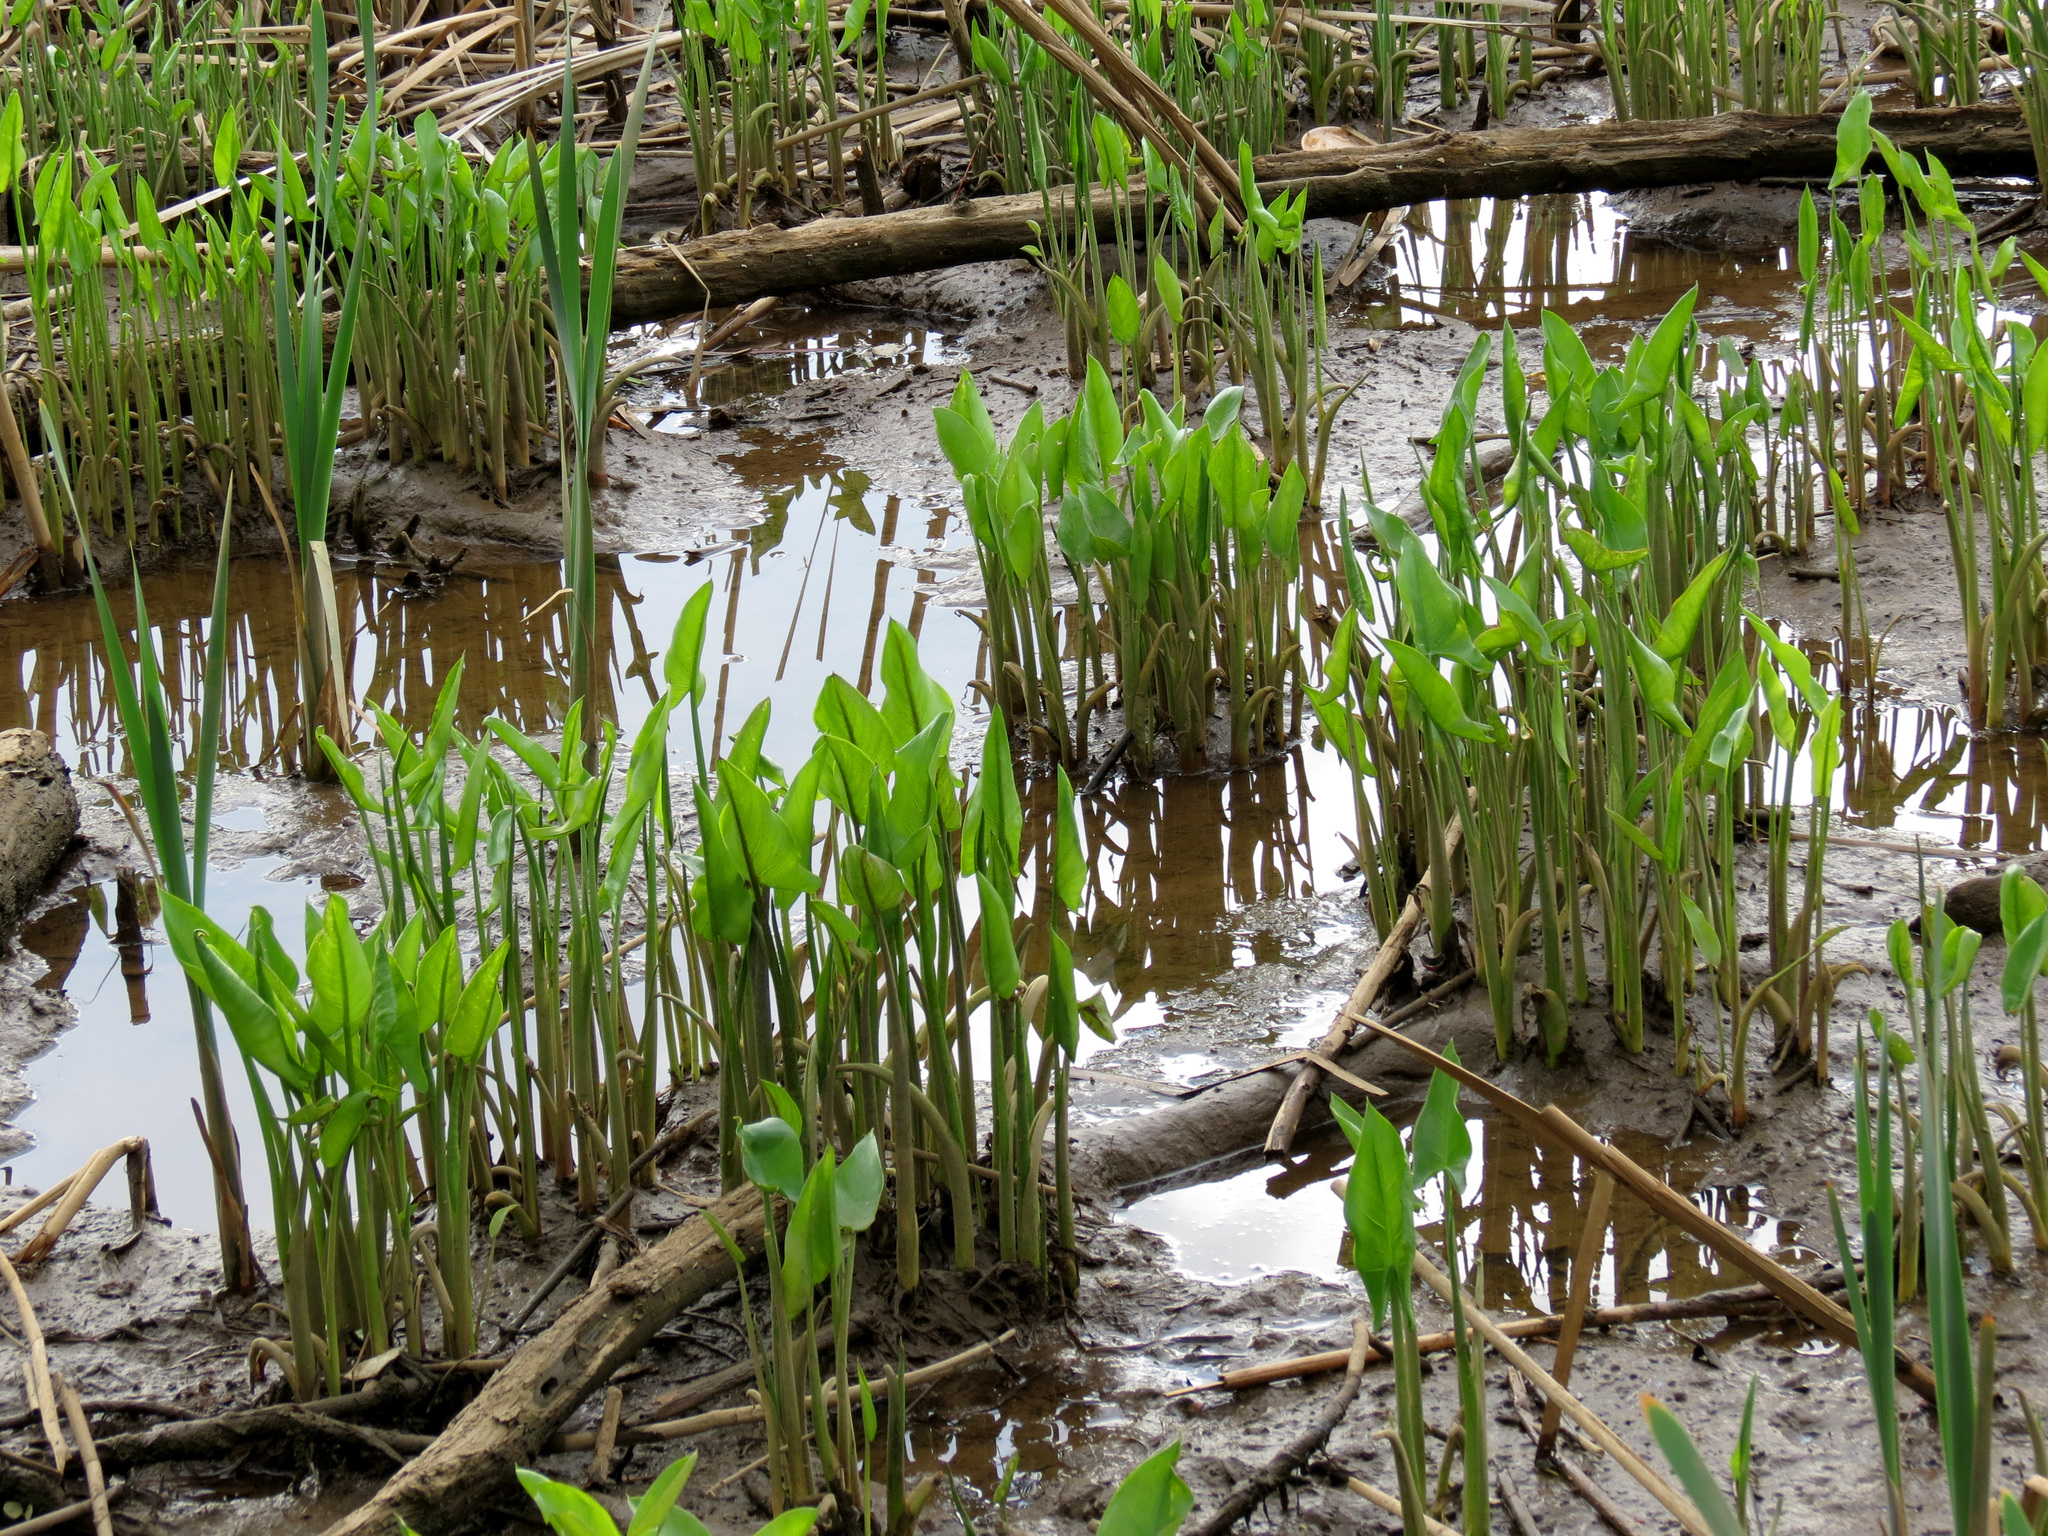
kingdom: Plantae
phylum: Tracheophyta
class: Liliopsida
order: Alismatales
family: Araceae
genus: Peltandra
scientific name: Peltandra virginica
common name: Arrow arum
